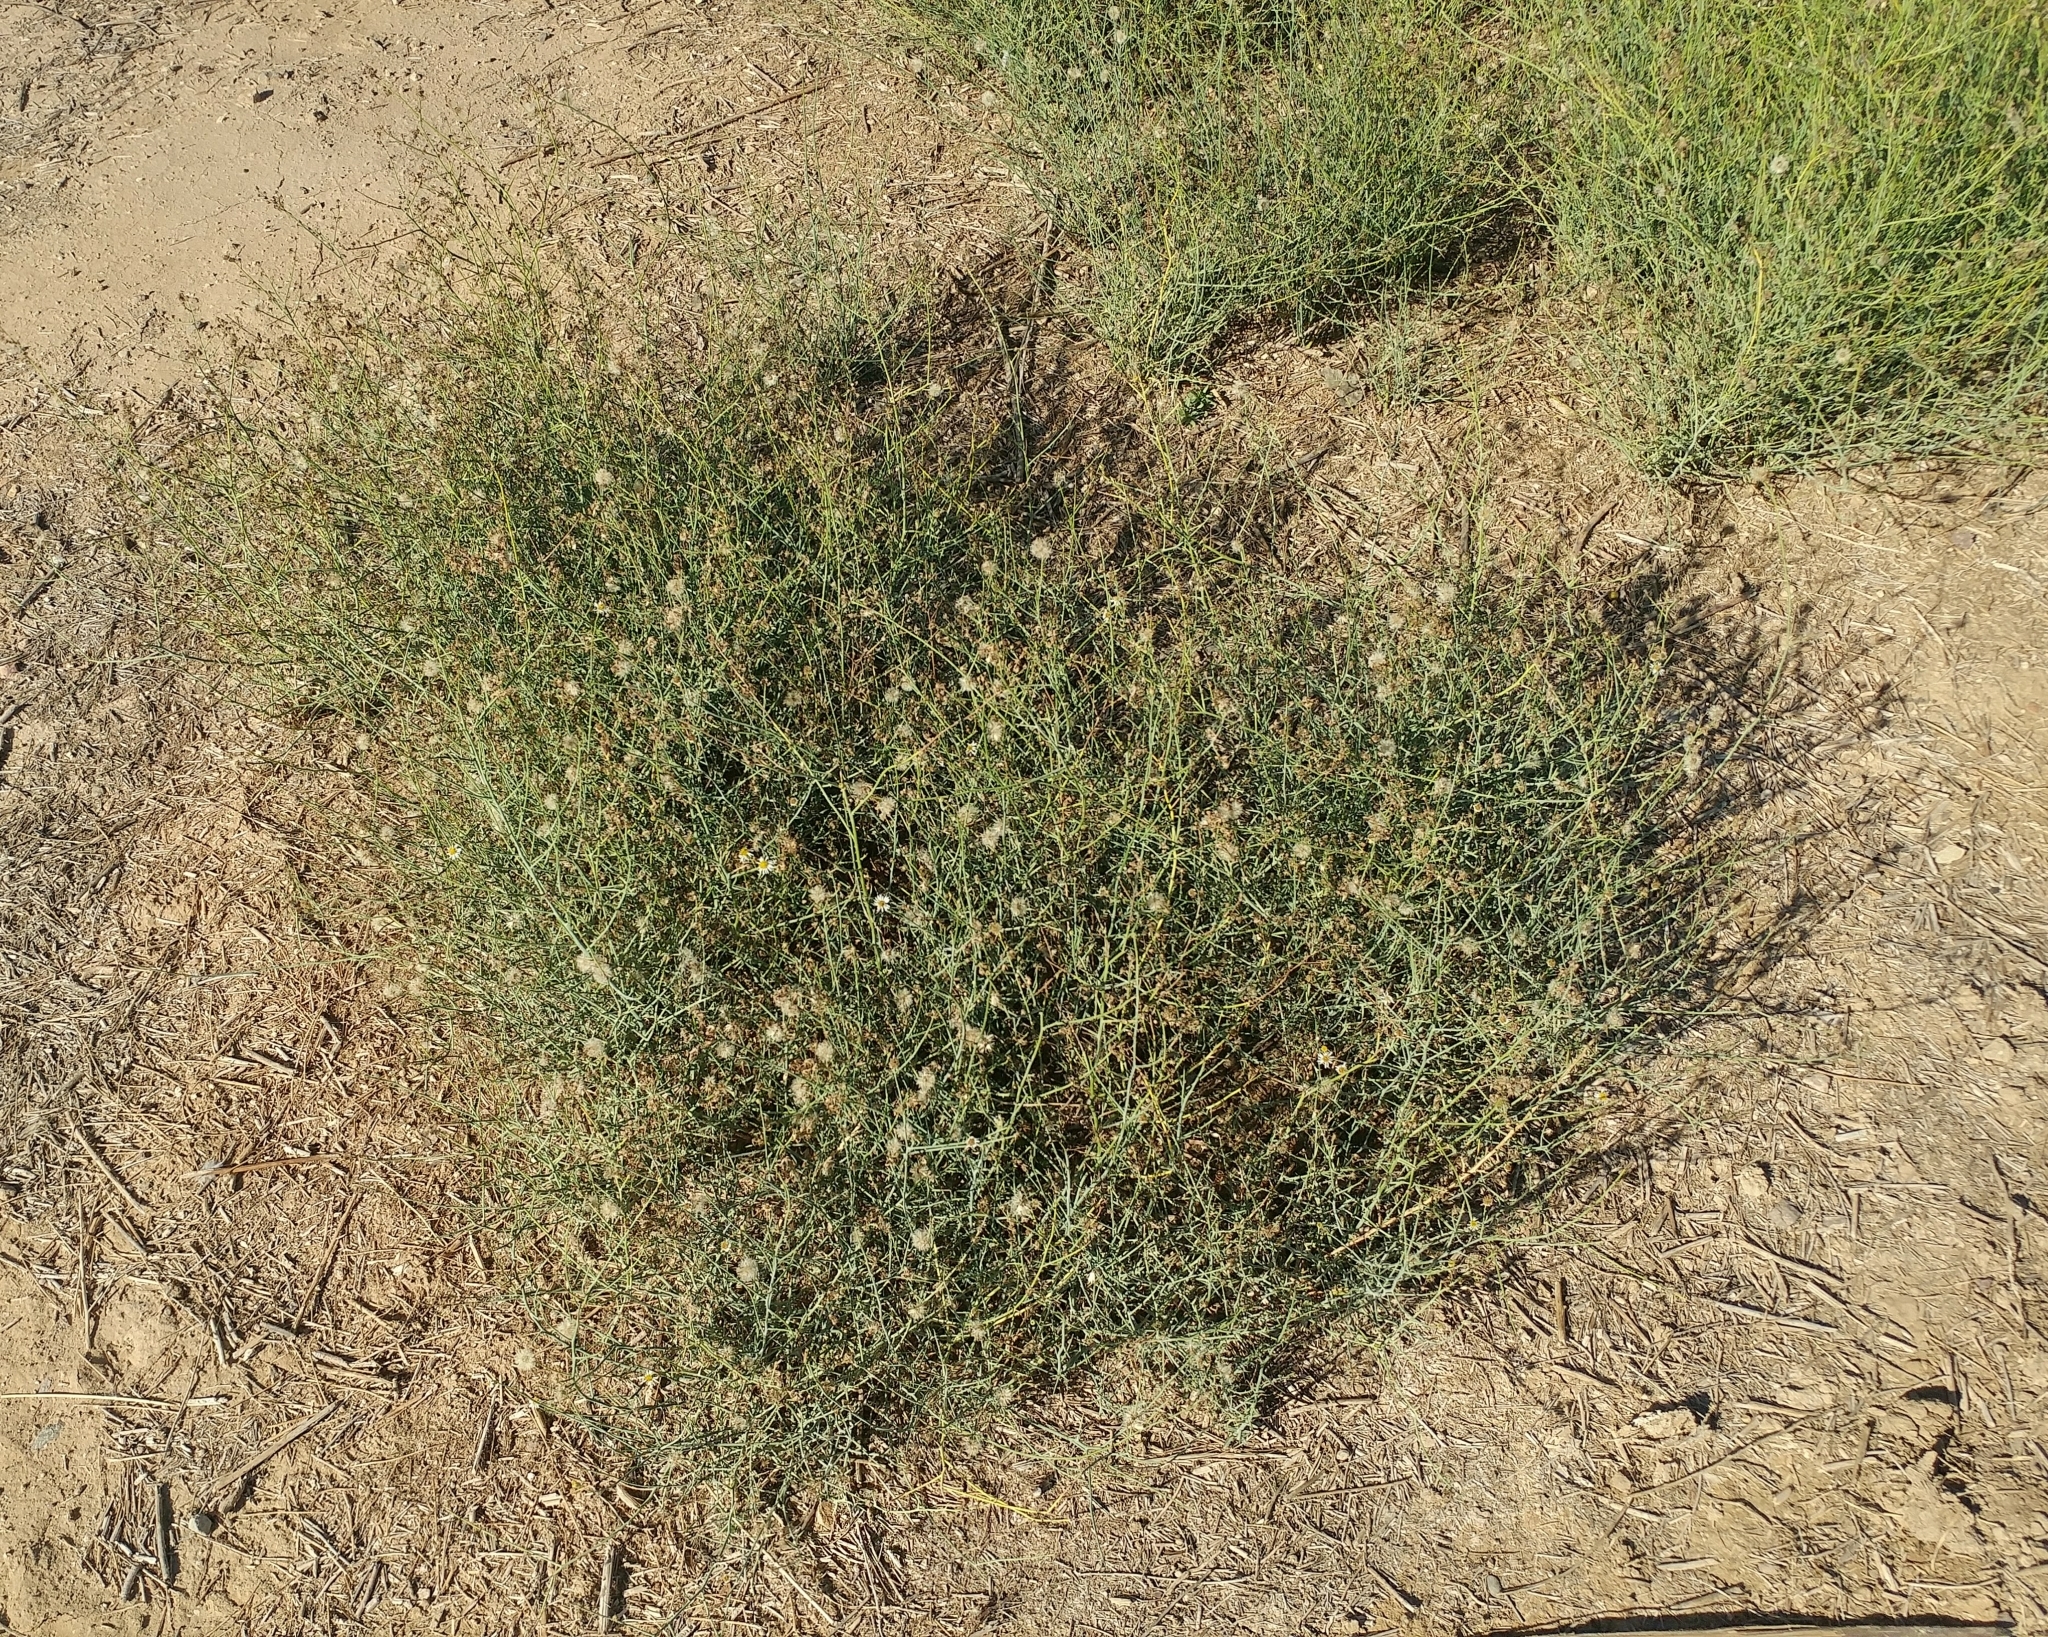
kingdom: Plantae
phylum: Tracheophyta
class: Magnoliopsida
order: Asterales
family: Asteraceae
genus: Chloracantha
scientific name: Chloracantha spinosa
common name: Mexican devilweed
